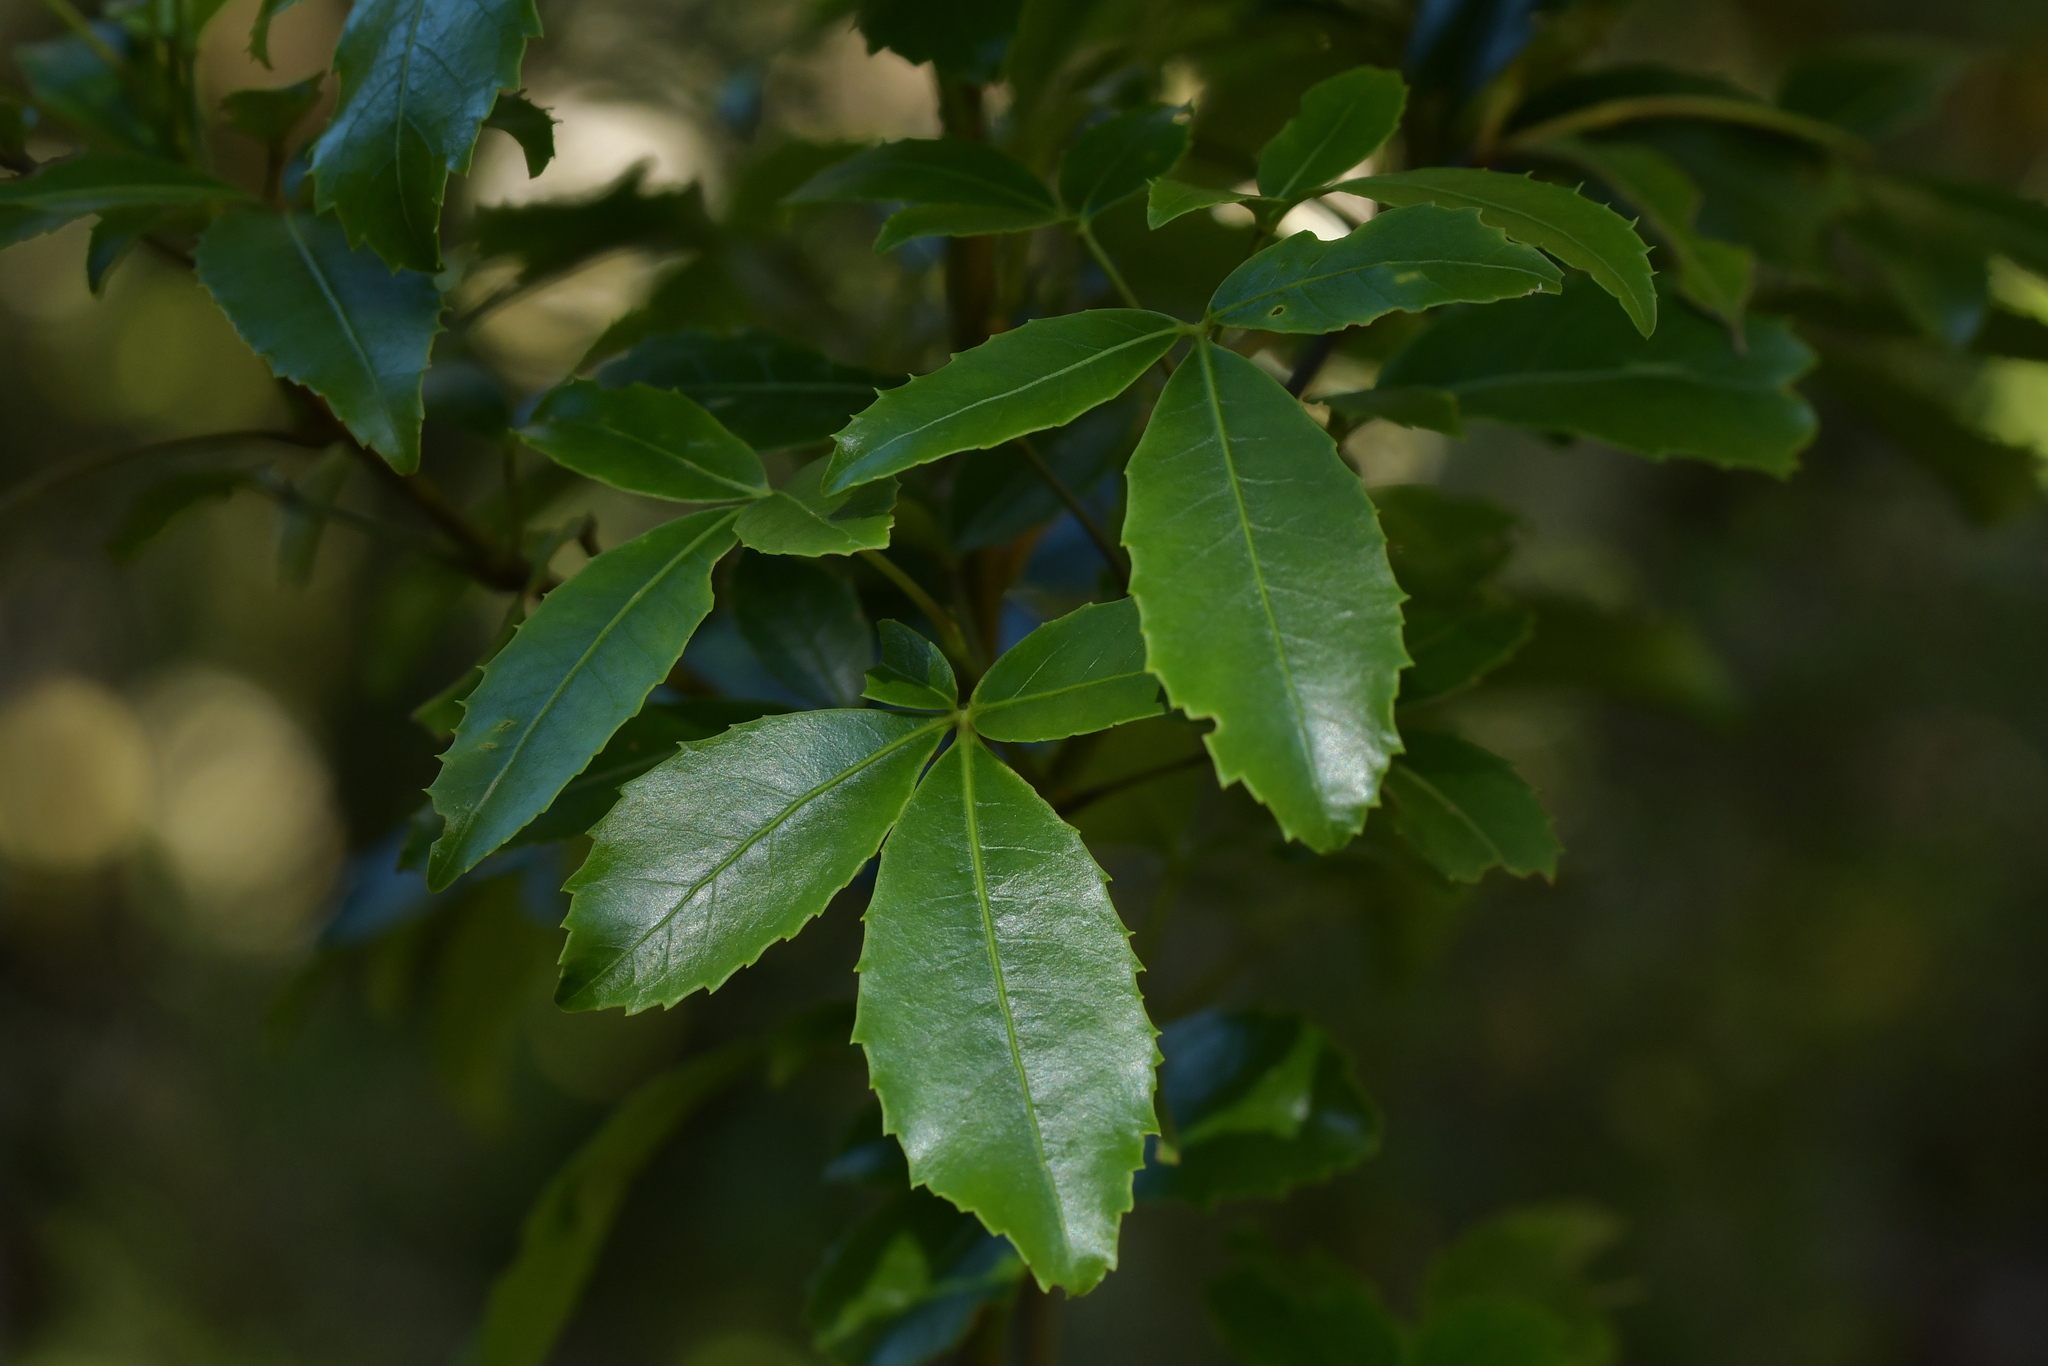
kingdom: Plantae
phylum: Tracheophyta
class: Magnoliopsida
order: Apiales
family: Araliaceae
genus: Neopanax
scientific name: Neopanax colensoi
